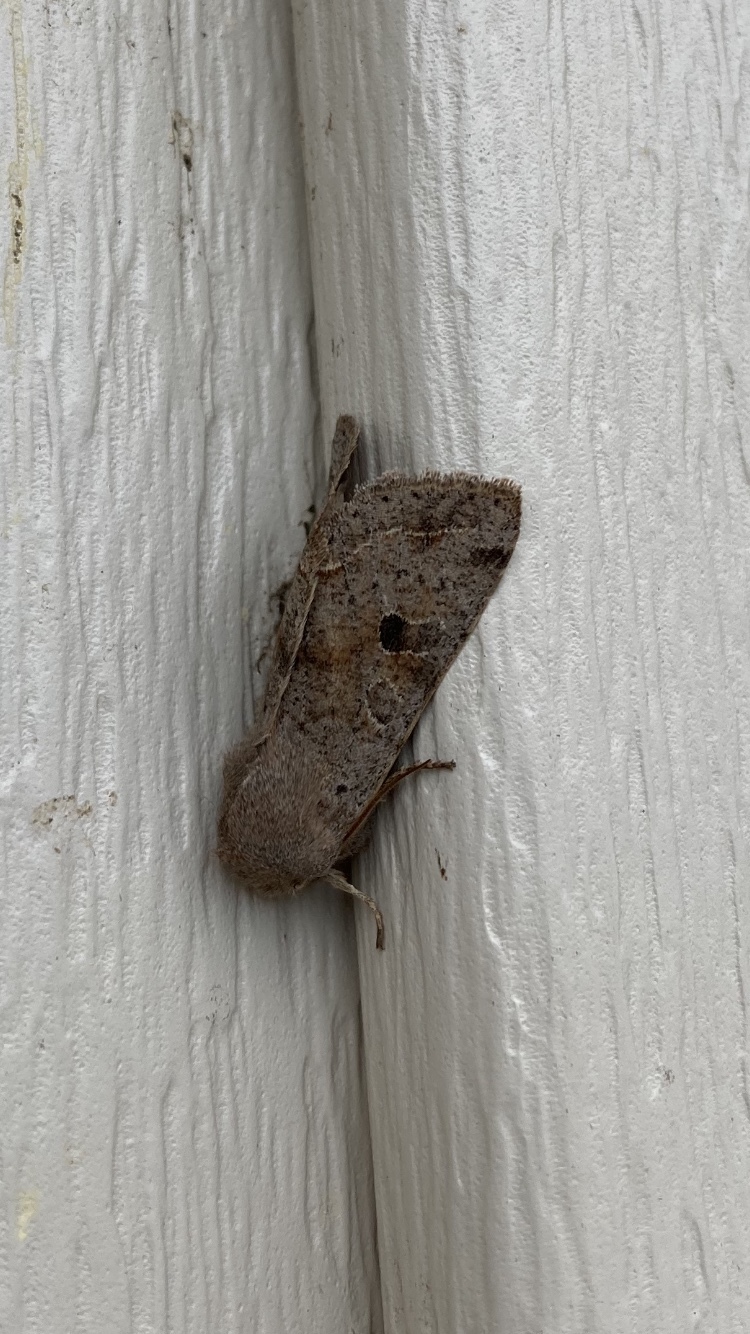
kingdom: Animalia
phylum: Arthropoda
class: Insecta
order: Lepidoptera
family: Noctuidae
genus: Orthosia
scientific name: Orthosia hibisci
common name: Green fruitworm
